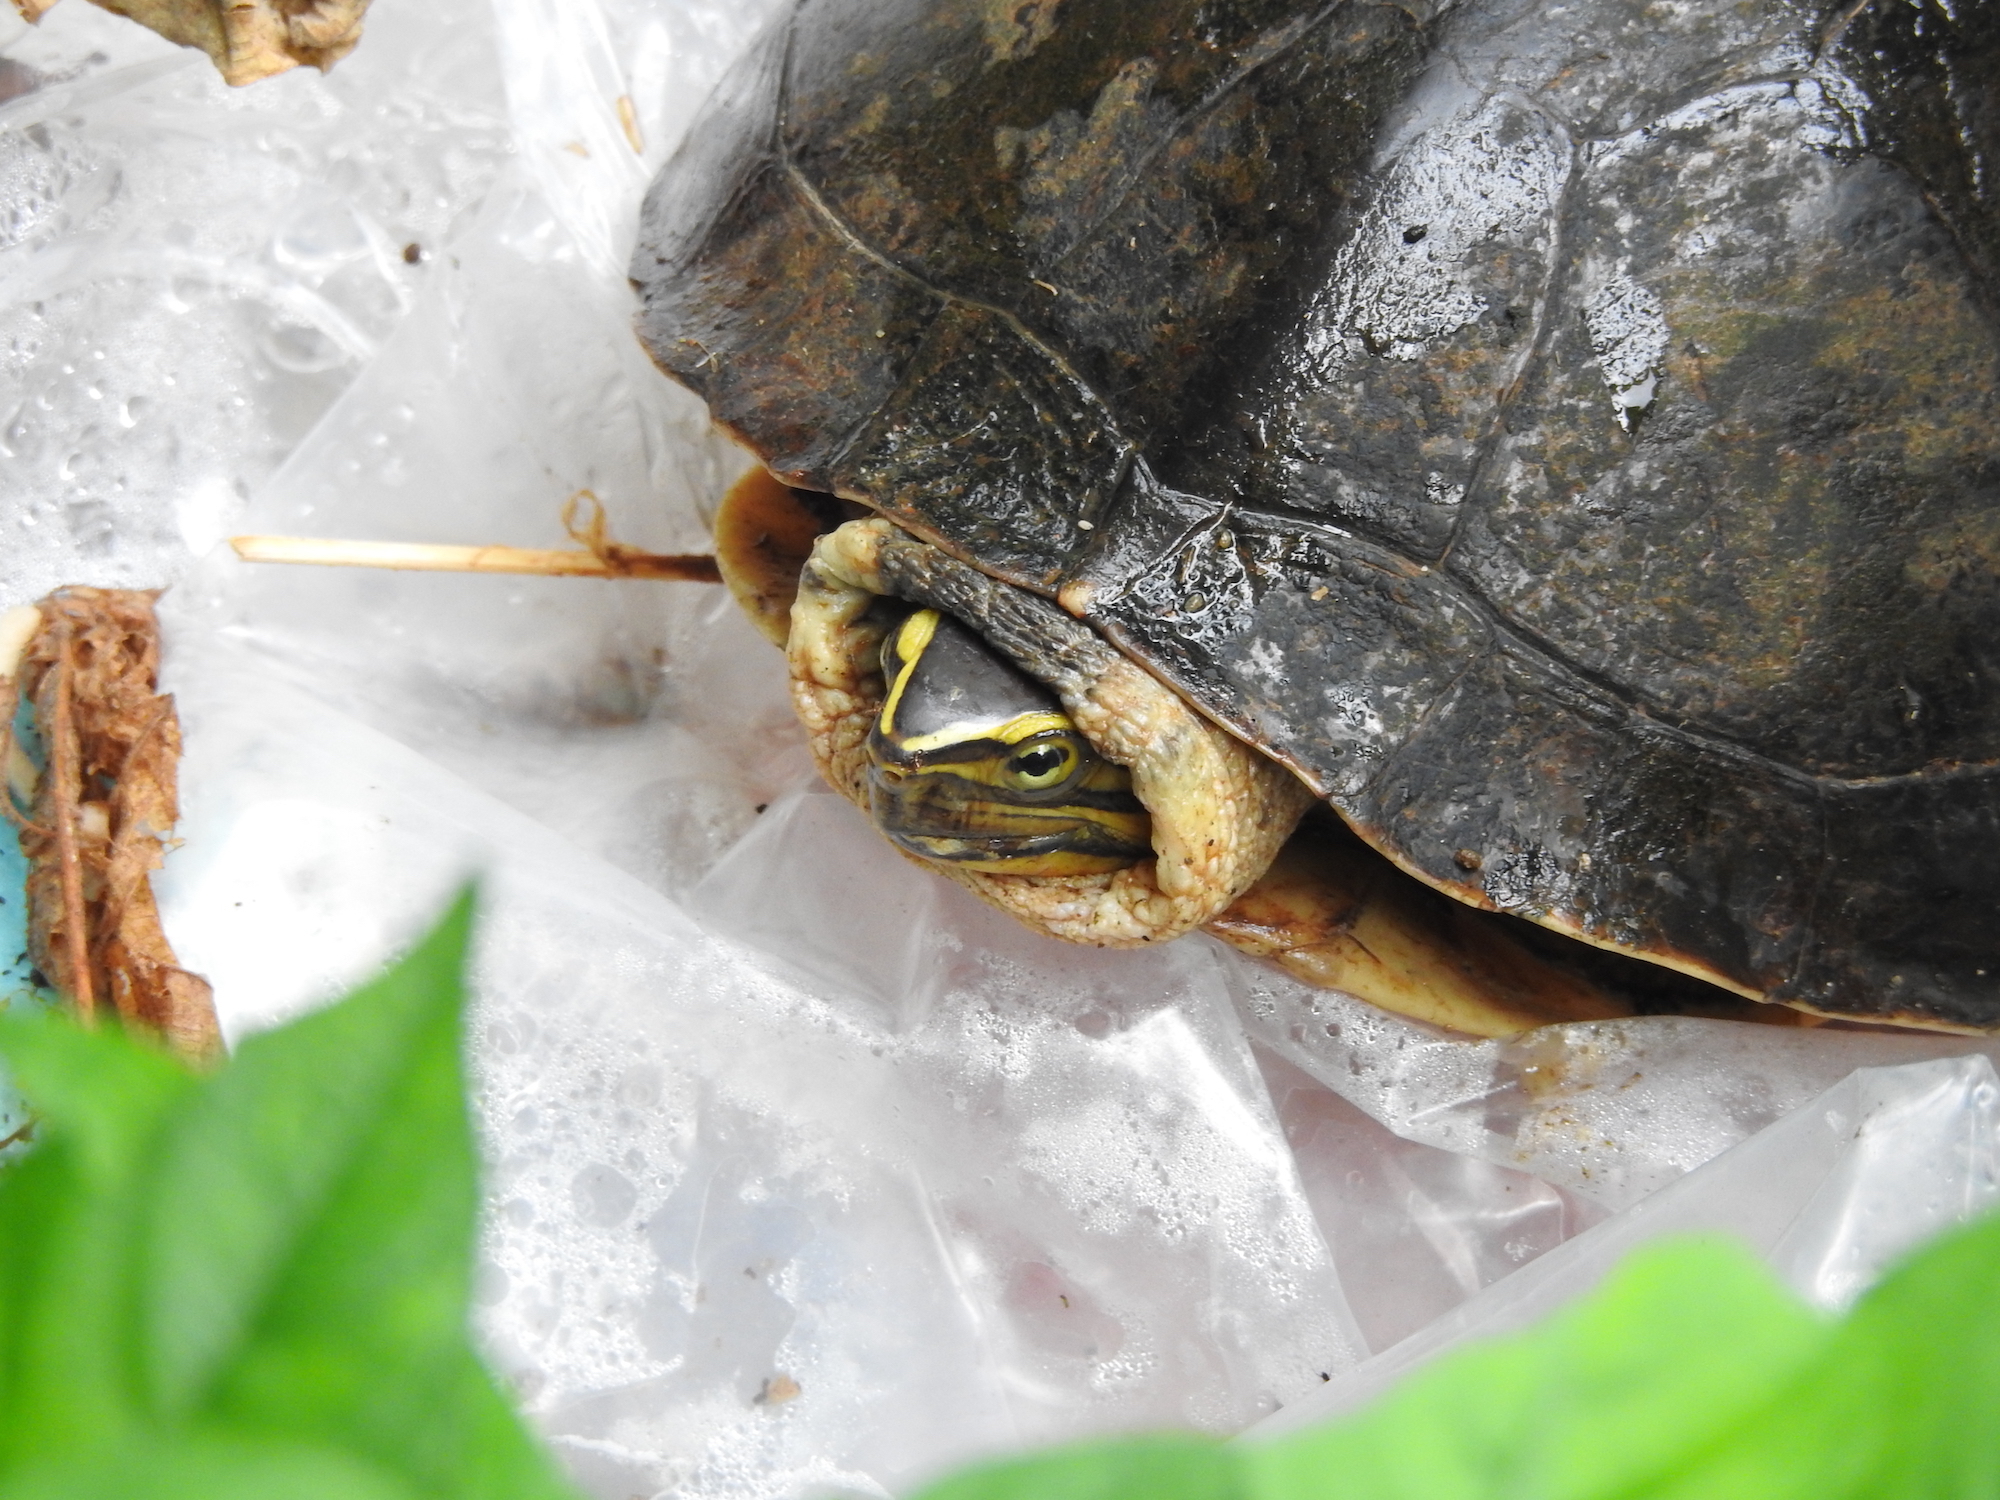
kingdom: Animalia
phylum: Chordata
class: Testudines
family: Geoemydidae
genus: Cuora
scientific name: Cuora
